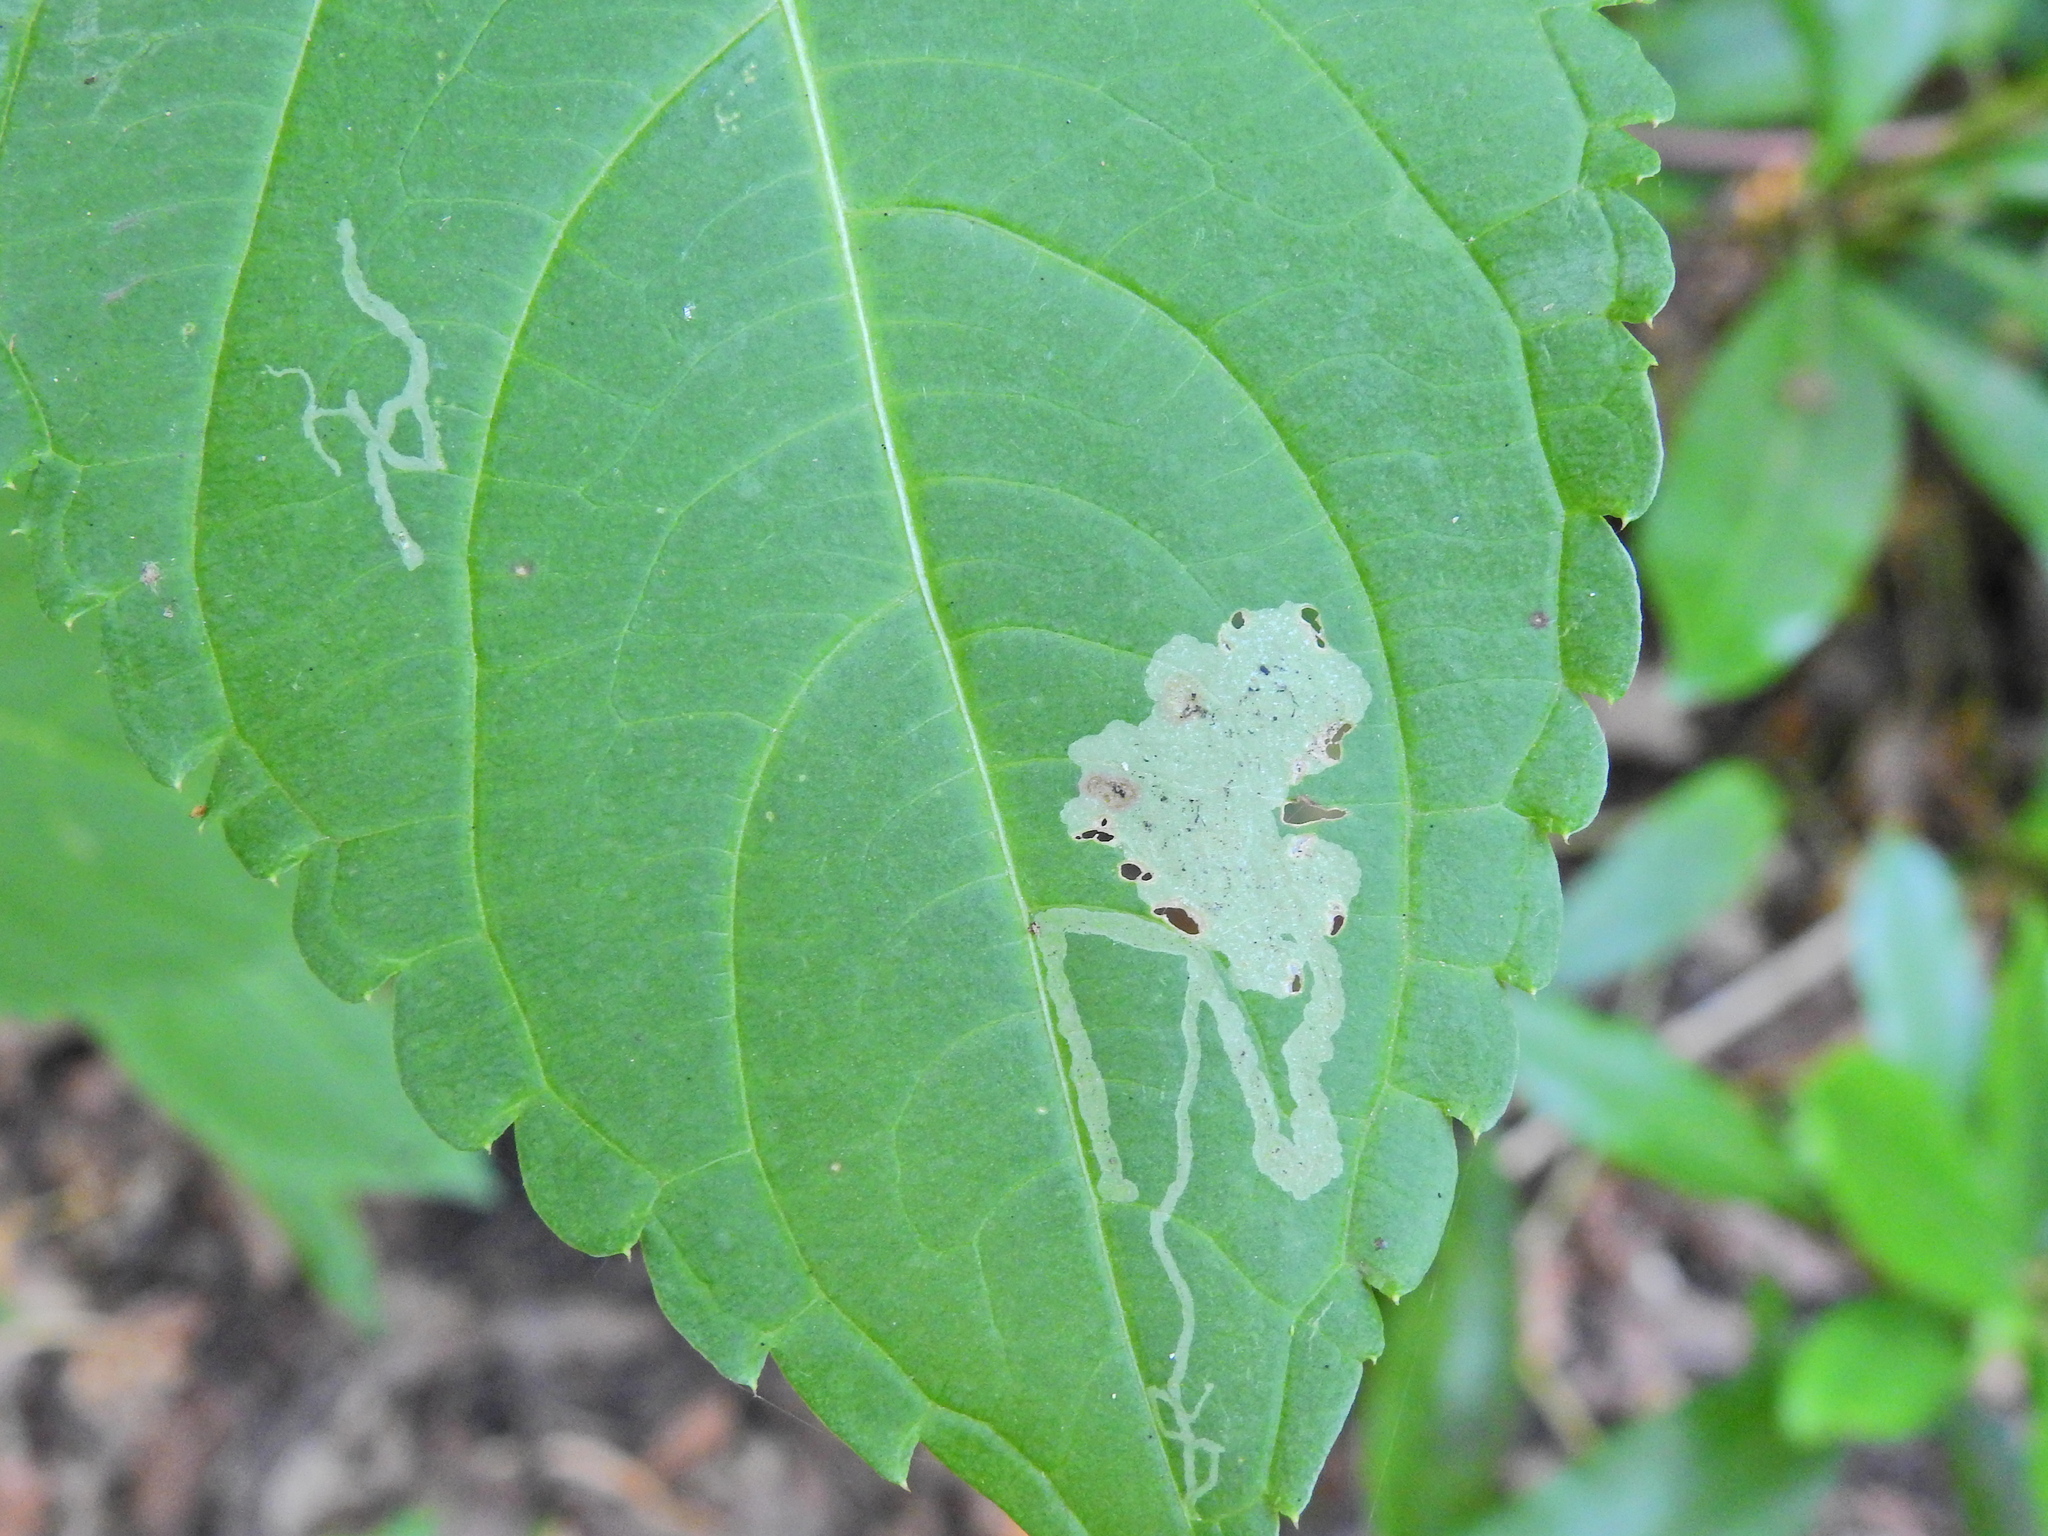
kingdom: Animalia
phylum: Arthropoda
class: Insecta
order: Diptera
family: Agromyzidae
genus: Phytoliriomyza
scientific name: Phytoliriomyza melampyga
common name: Jewelweed leaf-miner fly
